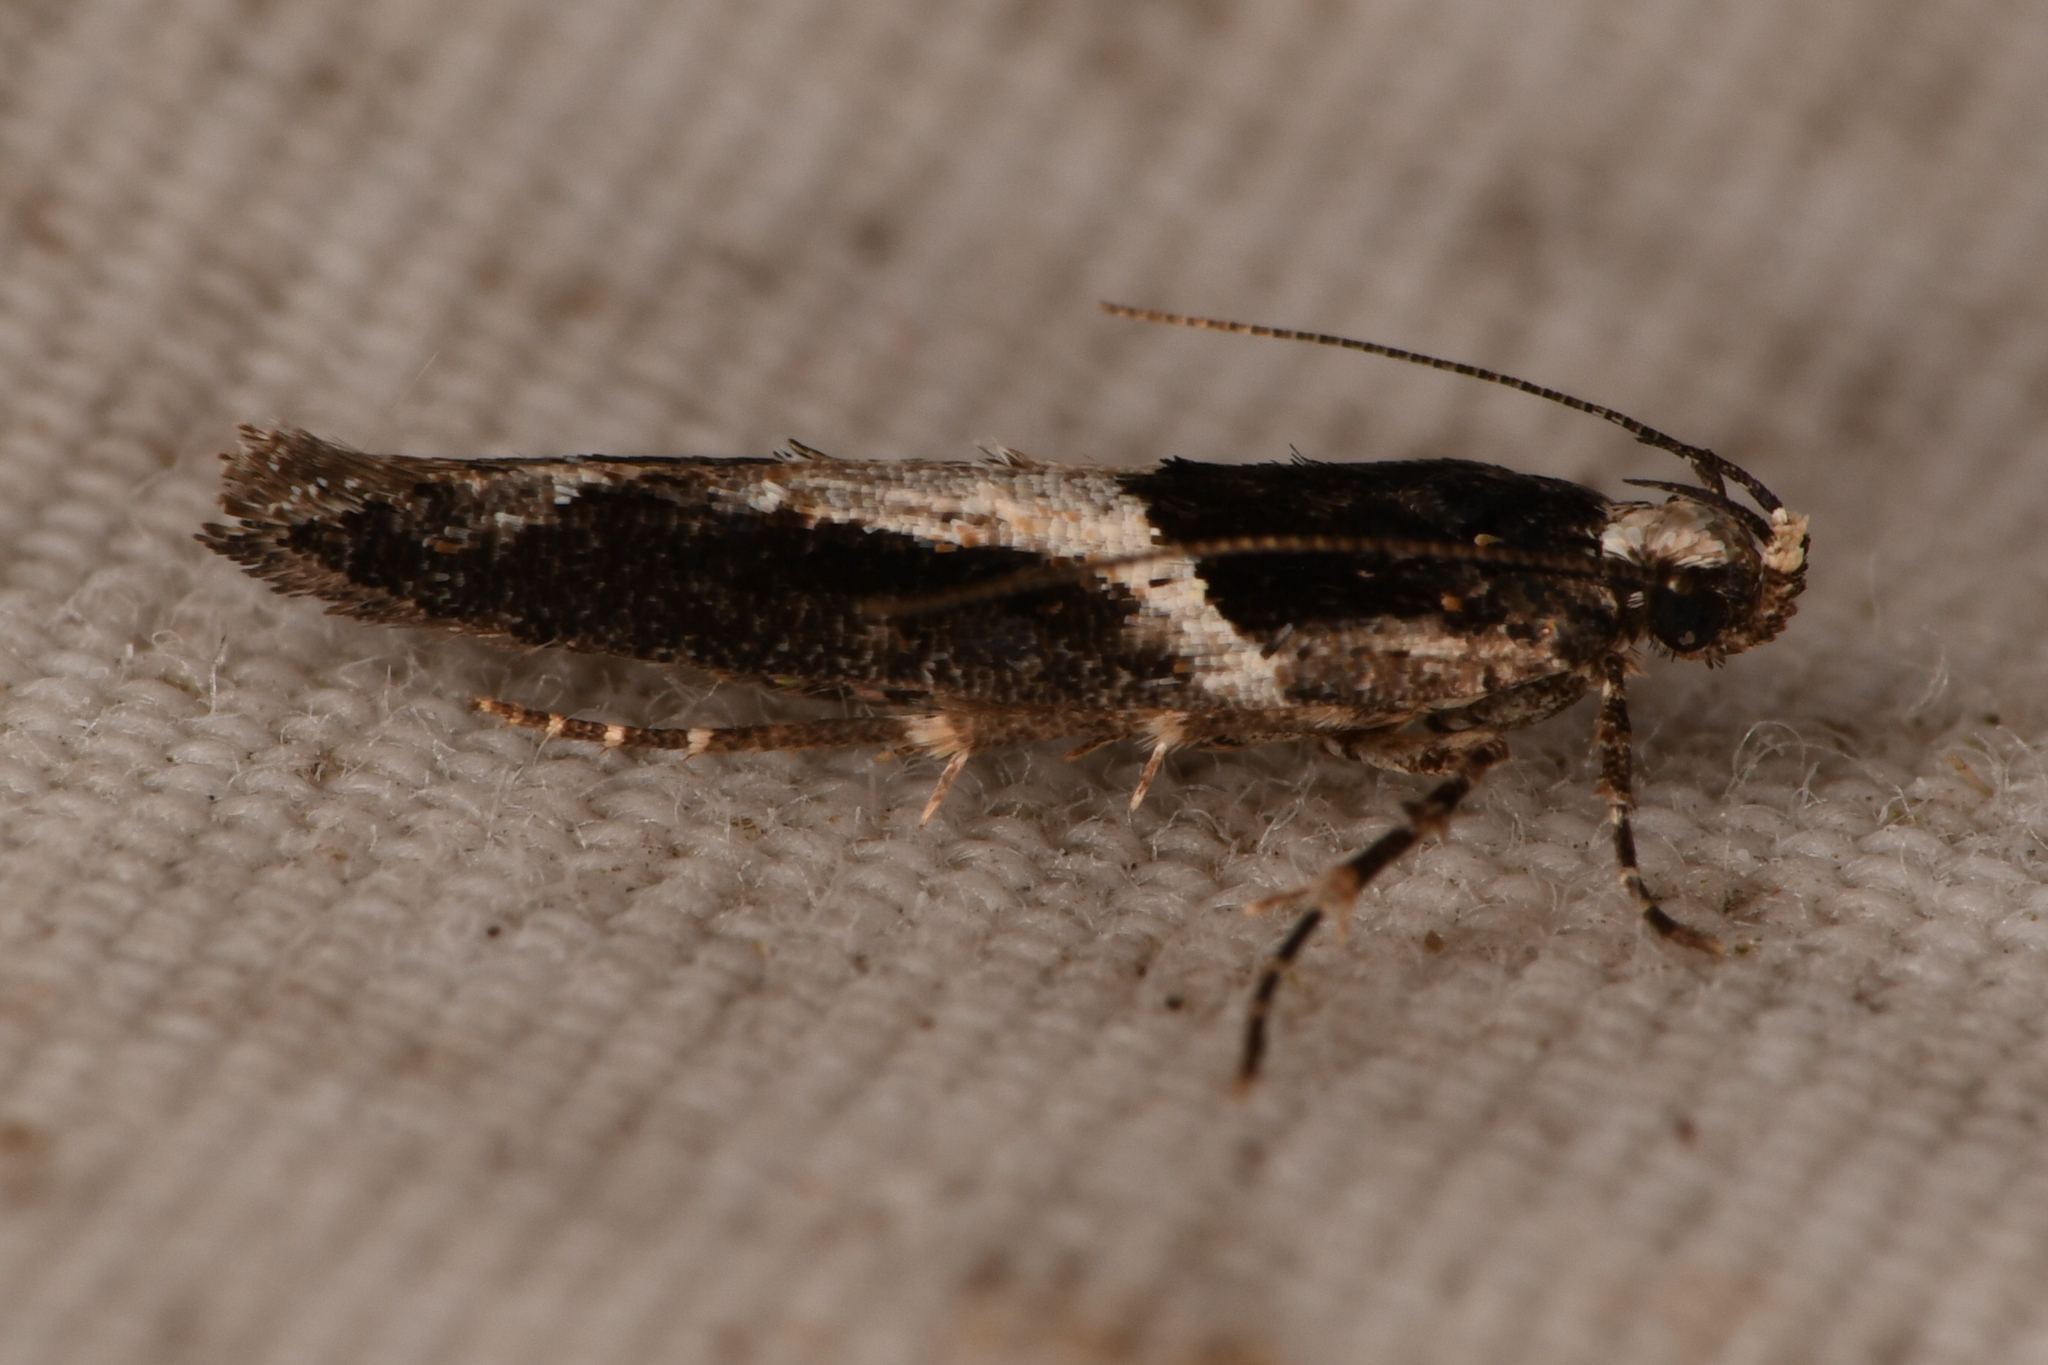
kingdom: Animalia
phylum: Arthropoda
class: Insecta
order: Lepidoptera
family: Gelechiidae
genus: Telphusa
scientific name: Telphusa sedulitella
